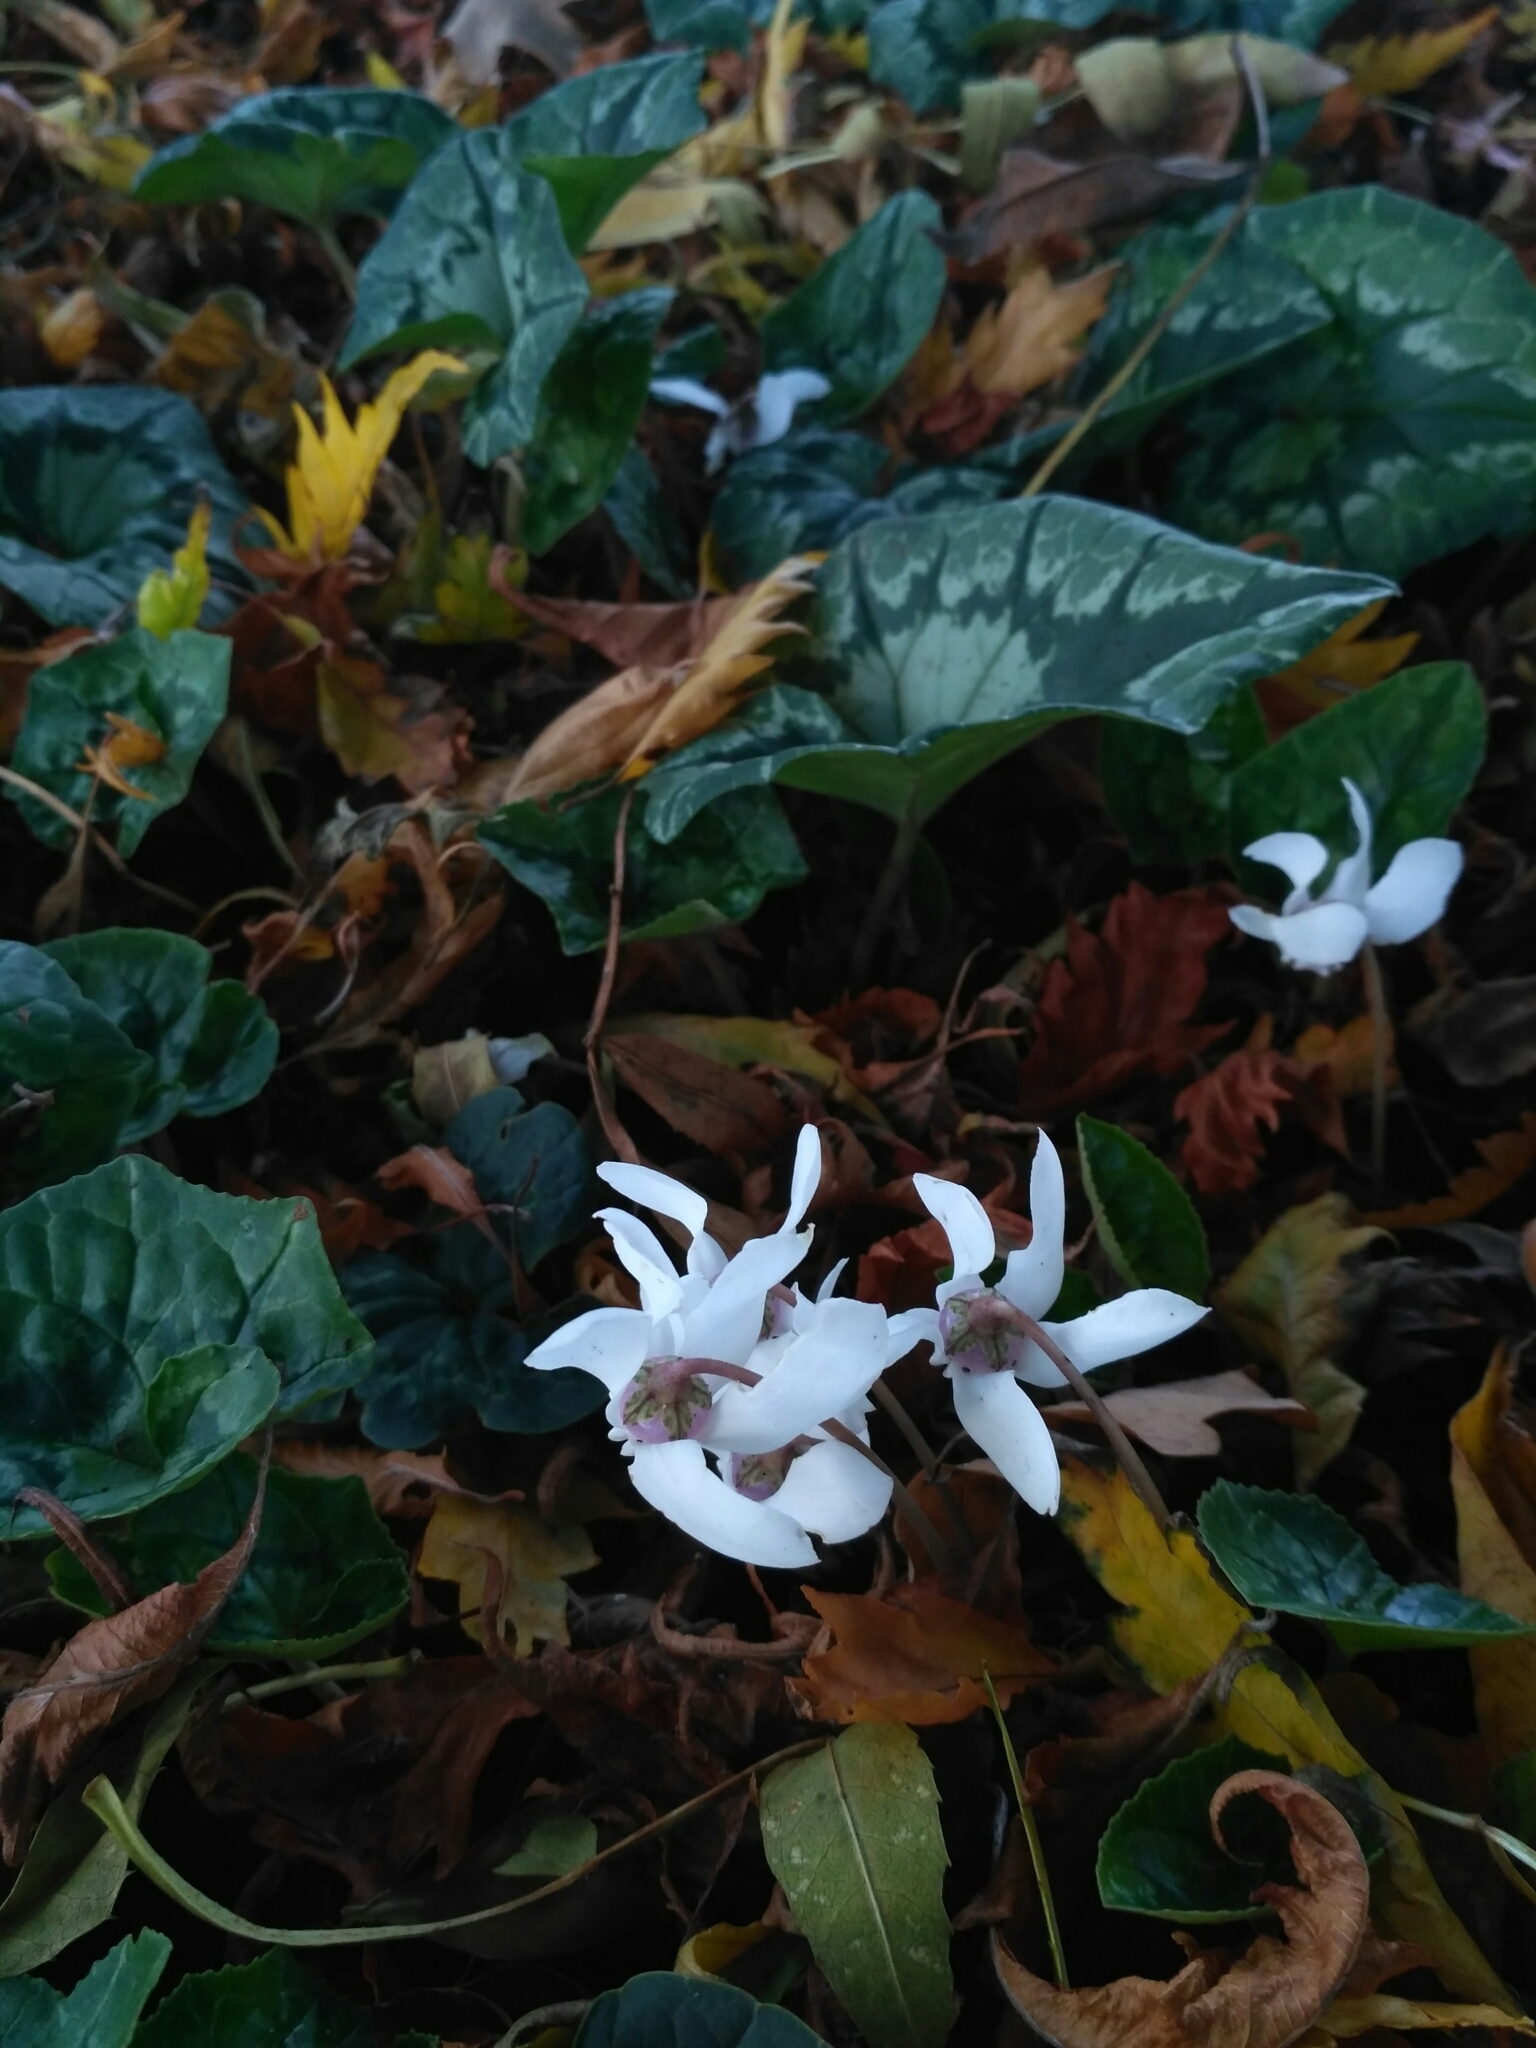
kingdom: Plantae
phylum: Tracheophyta
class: Magnoliopsida
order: Ericales
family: Primulaceae
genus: Cyclamen
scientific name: Cyclamen hederifolium
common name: Sowbread
